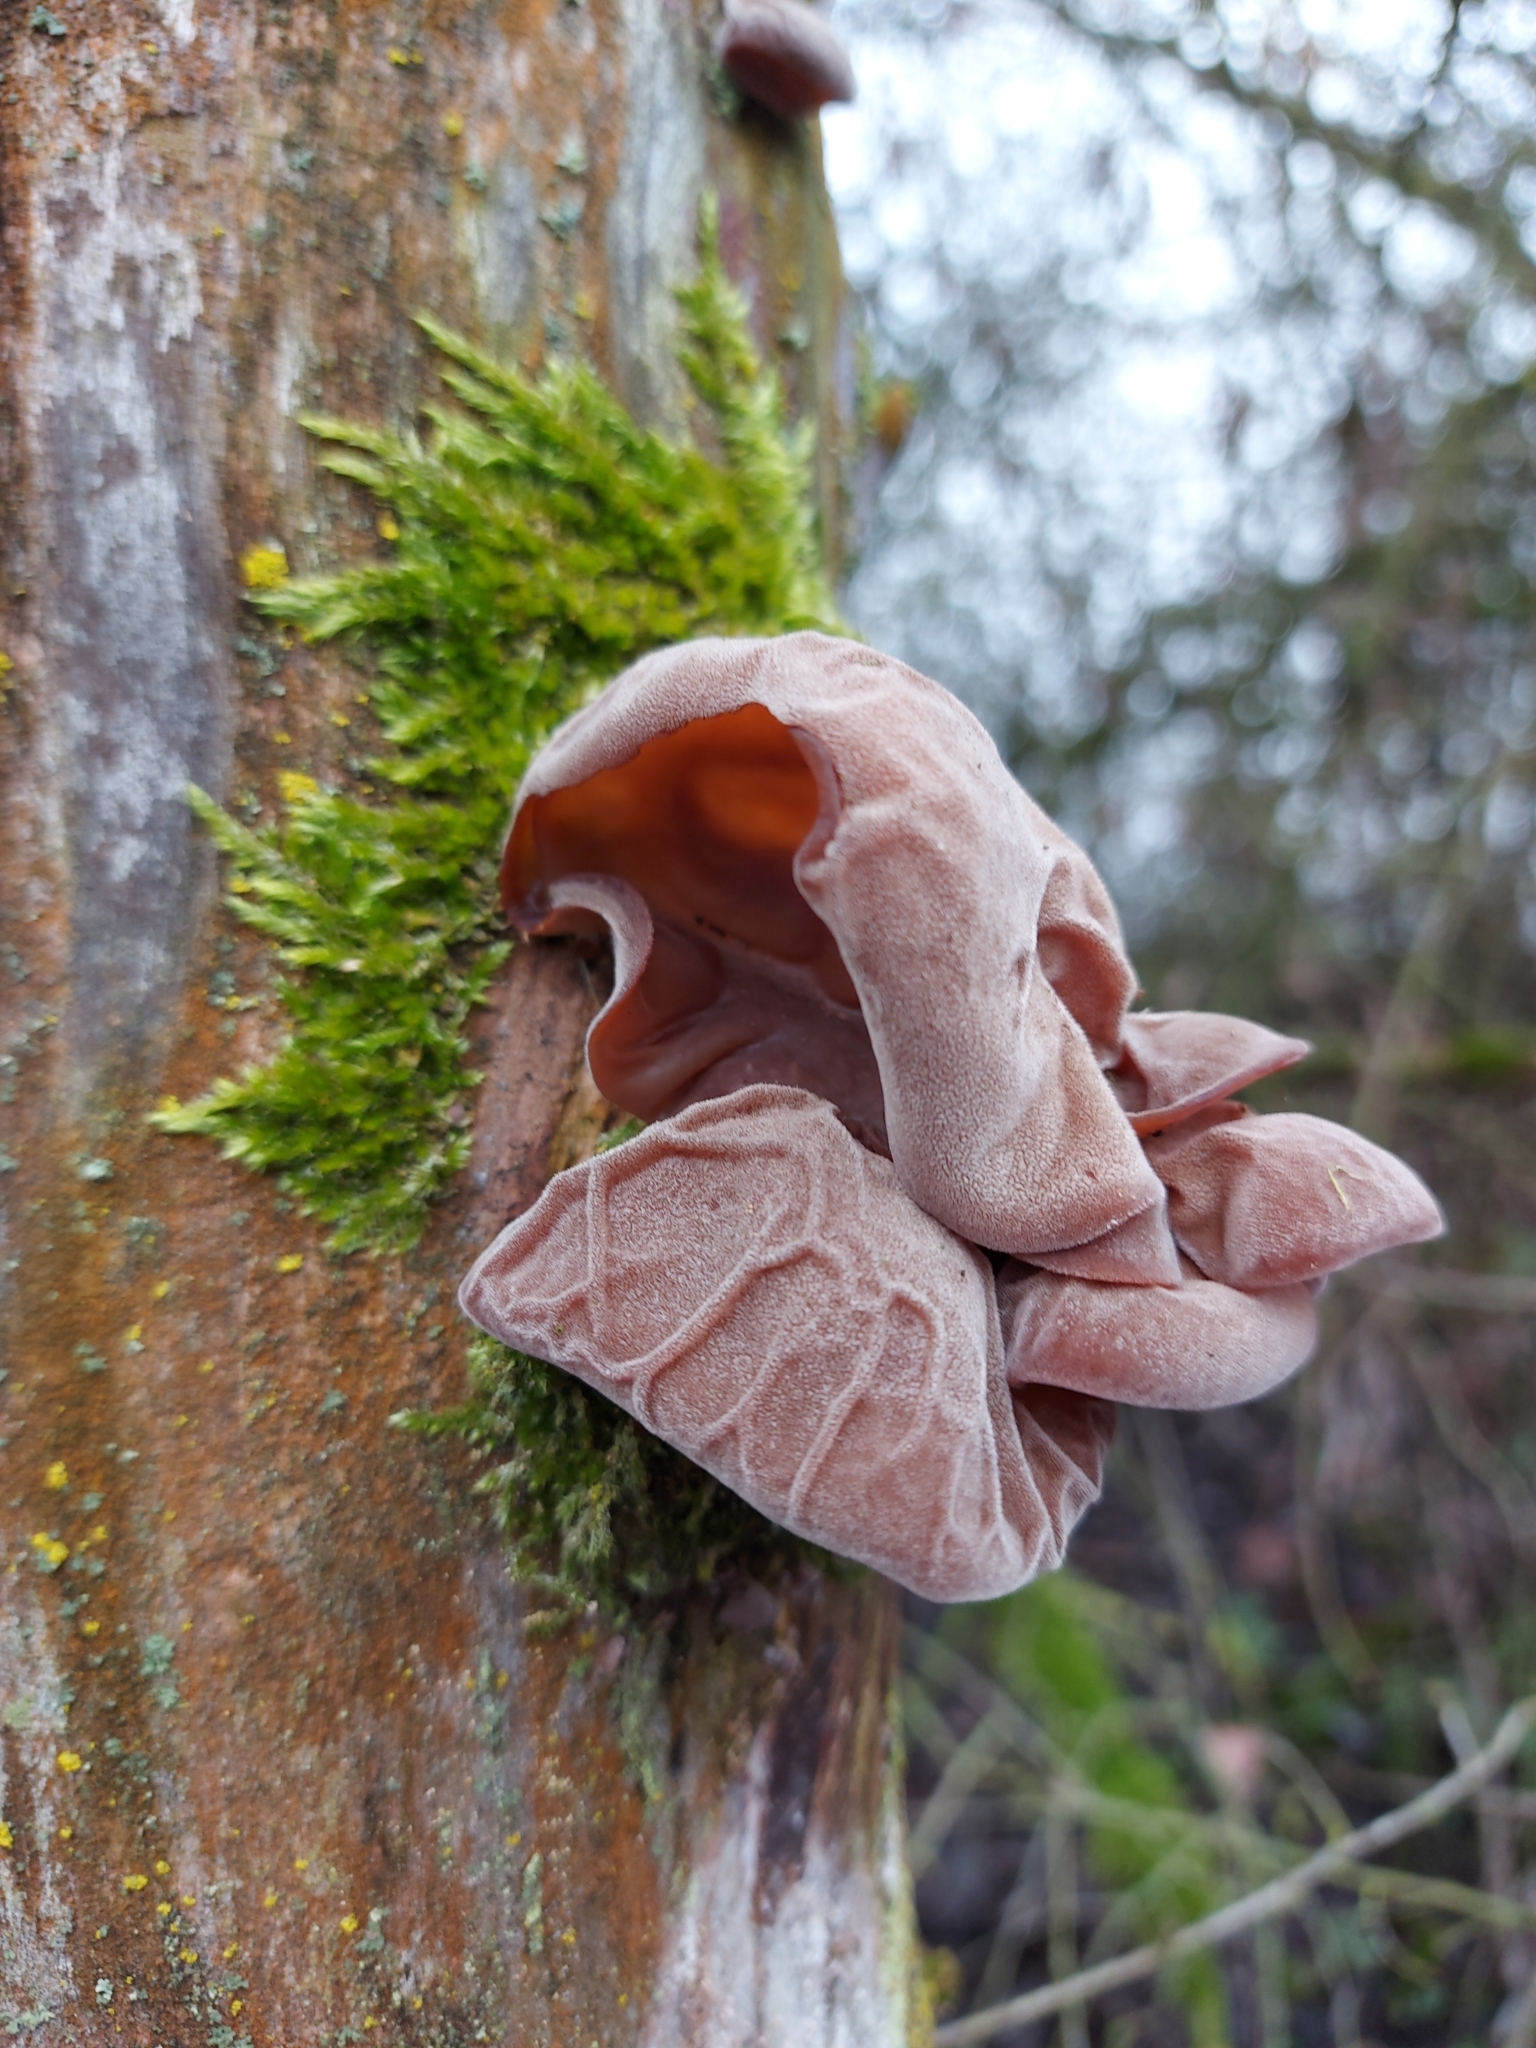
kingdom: Fungi
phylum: Basidiomycota
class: Agaricomycetes
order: Auriculariales
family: Auriculariaceae
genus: Auricularia
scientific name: Auricularia auricula-judae
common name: Jelly ear
